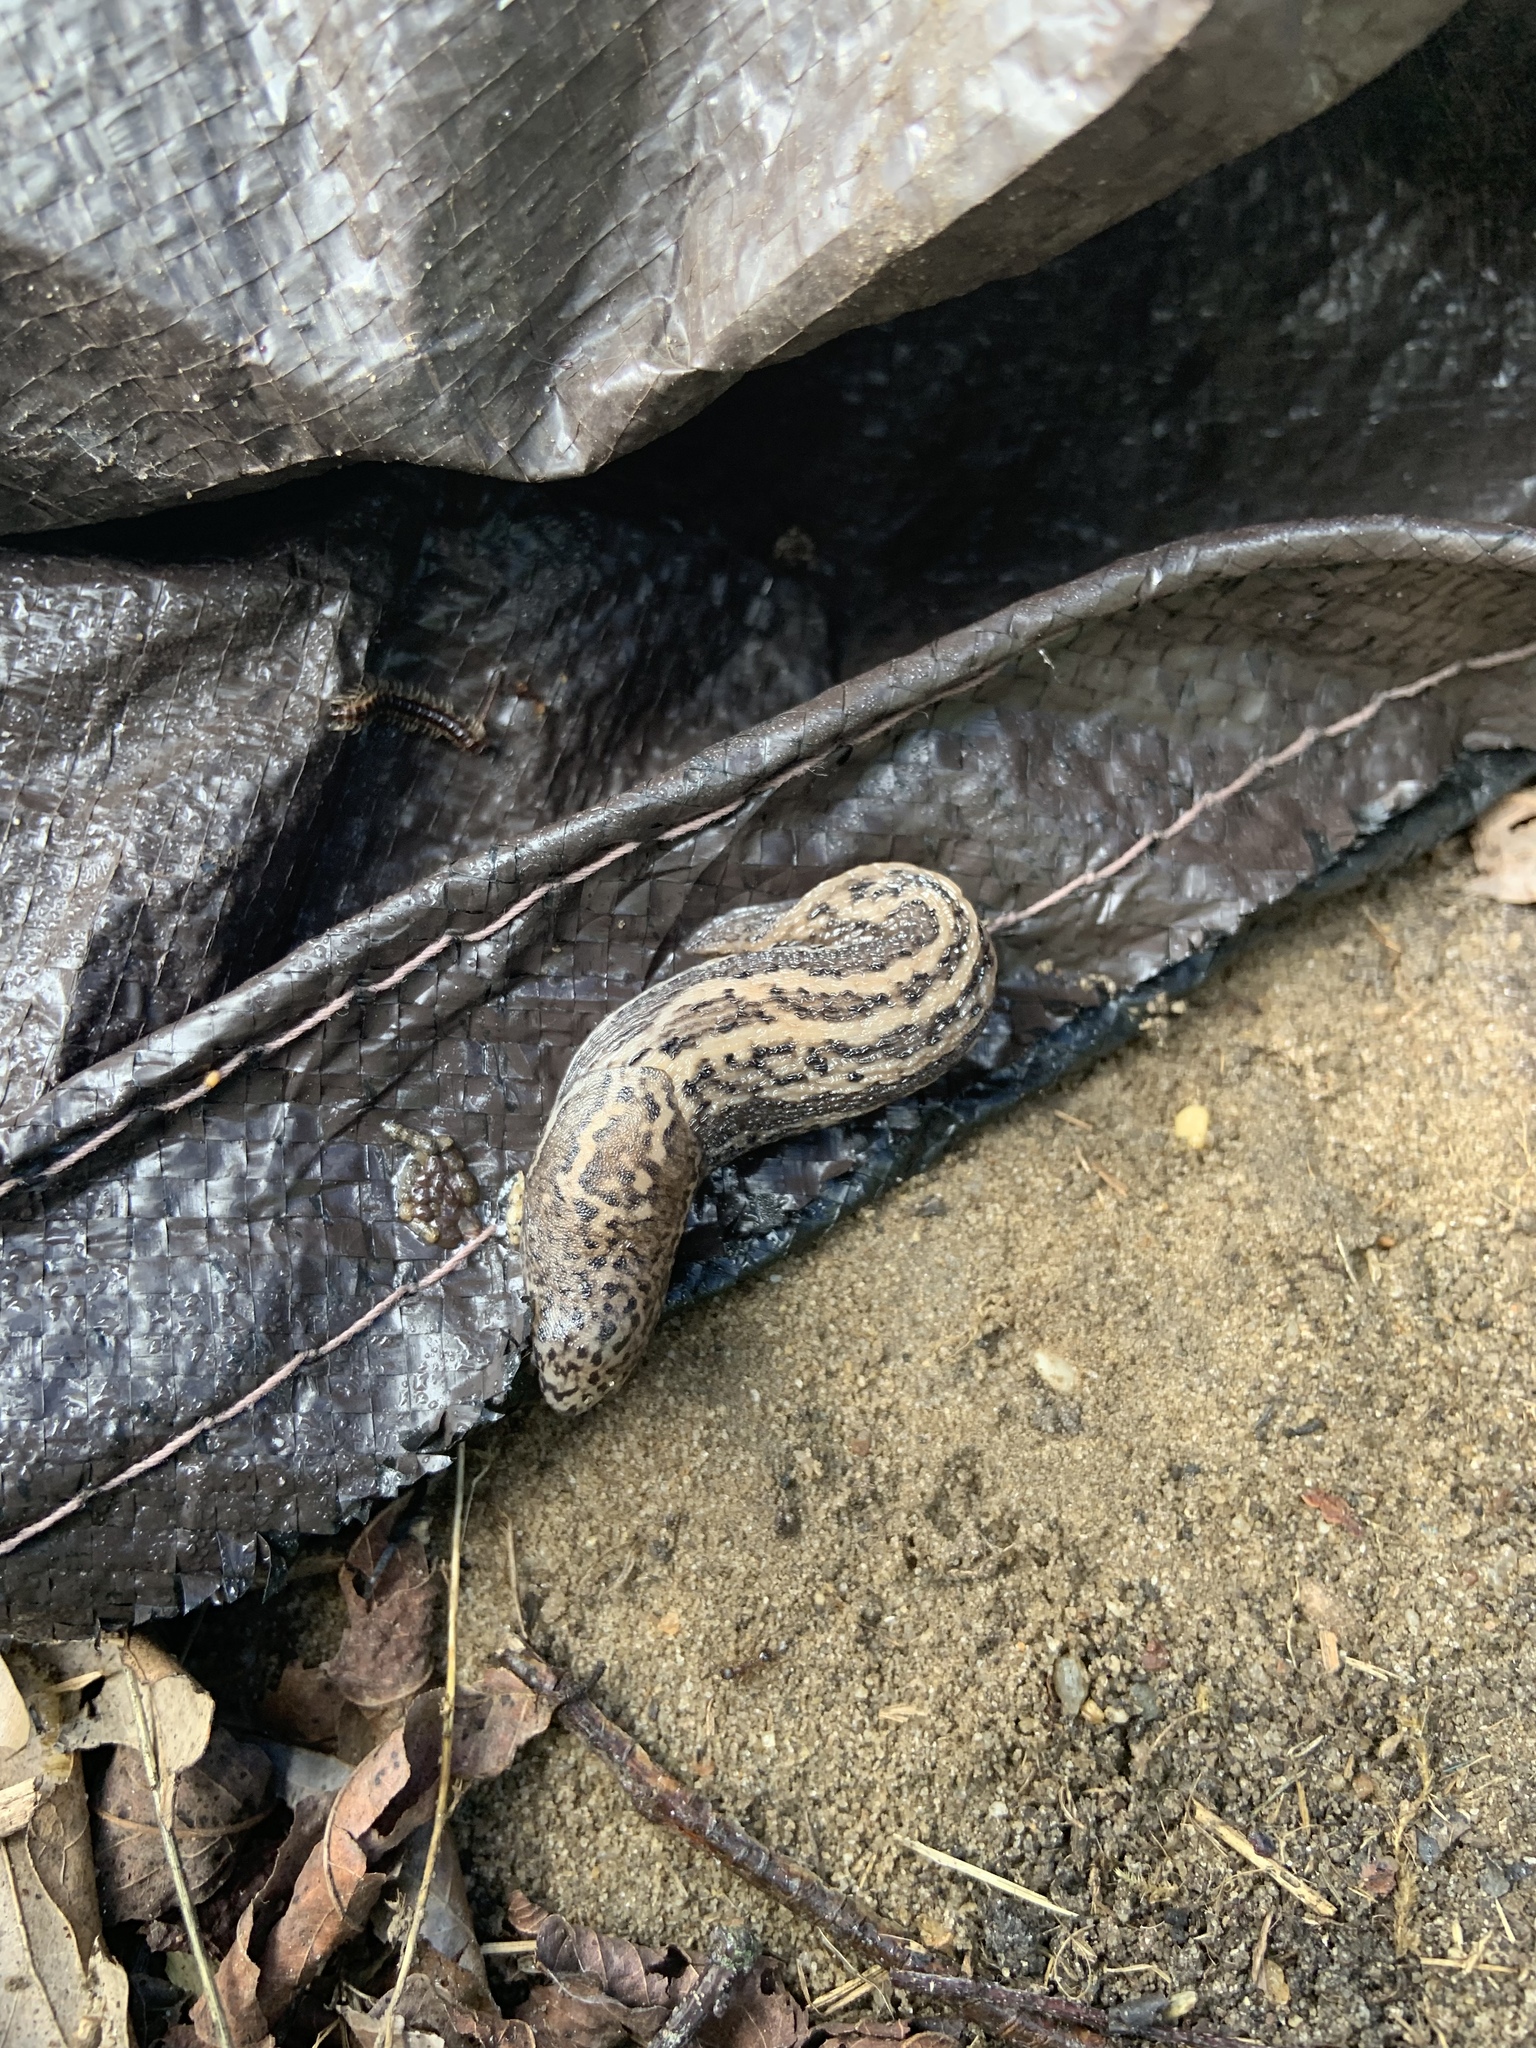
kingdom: Animalia
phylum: Mollusca
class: Gastropoda
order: Stylommatophora
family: Limacidae
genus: Limax
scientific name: Limax maximus
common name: Great grey slug
